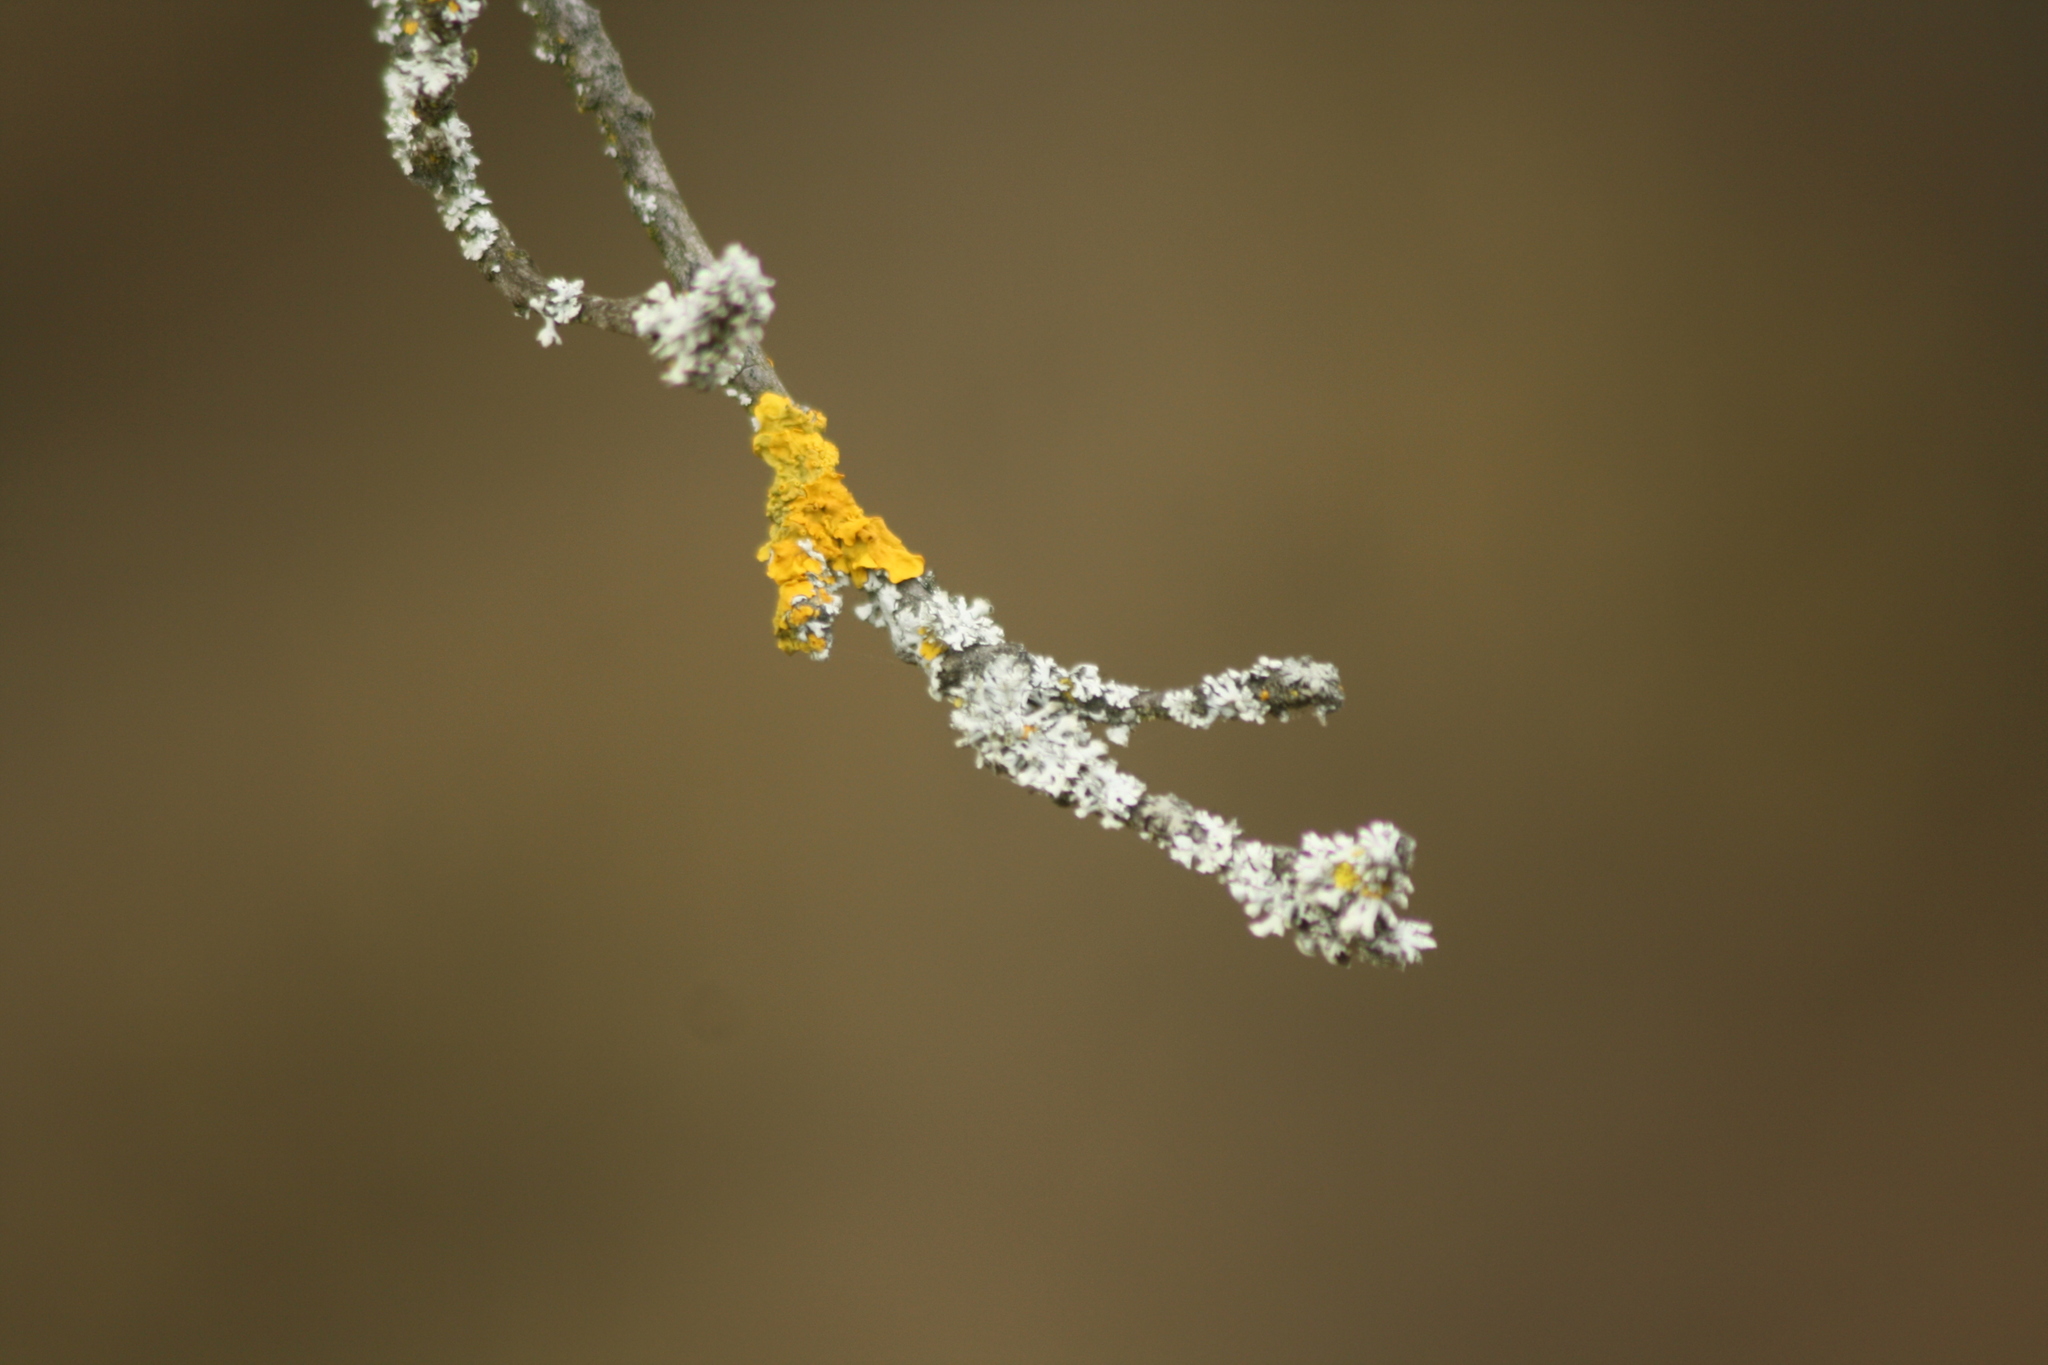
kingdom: Fungi
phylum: Ascomycota
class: Lecanoromycetes
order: Teloschistales
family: Teloschistaceae
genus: Xanthoria
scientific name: Xanthoria parietina
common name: Common orange lichen
